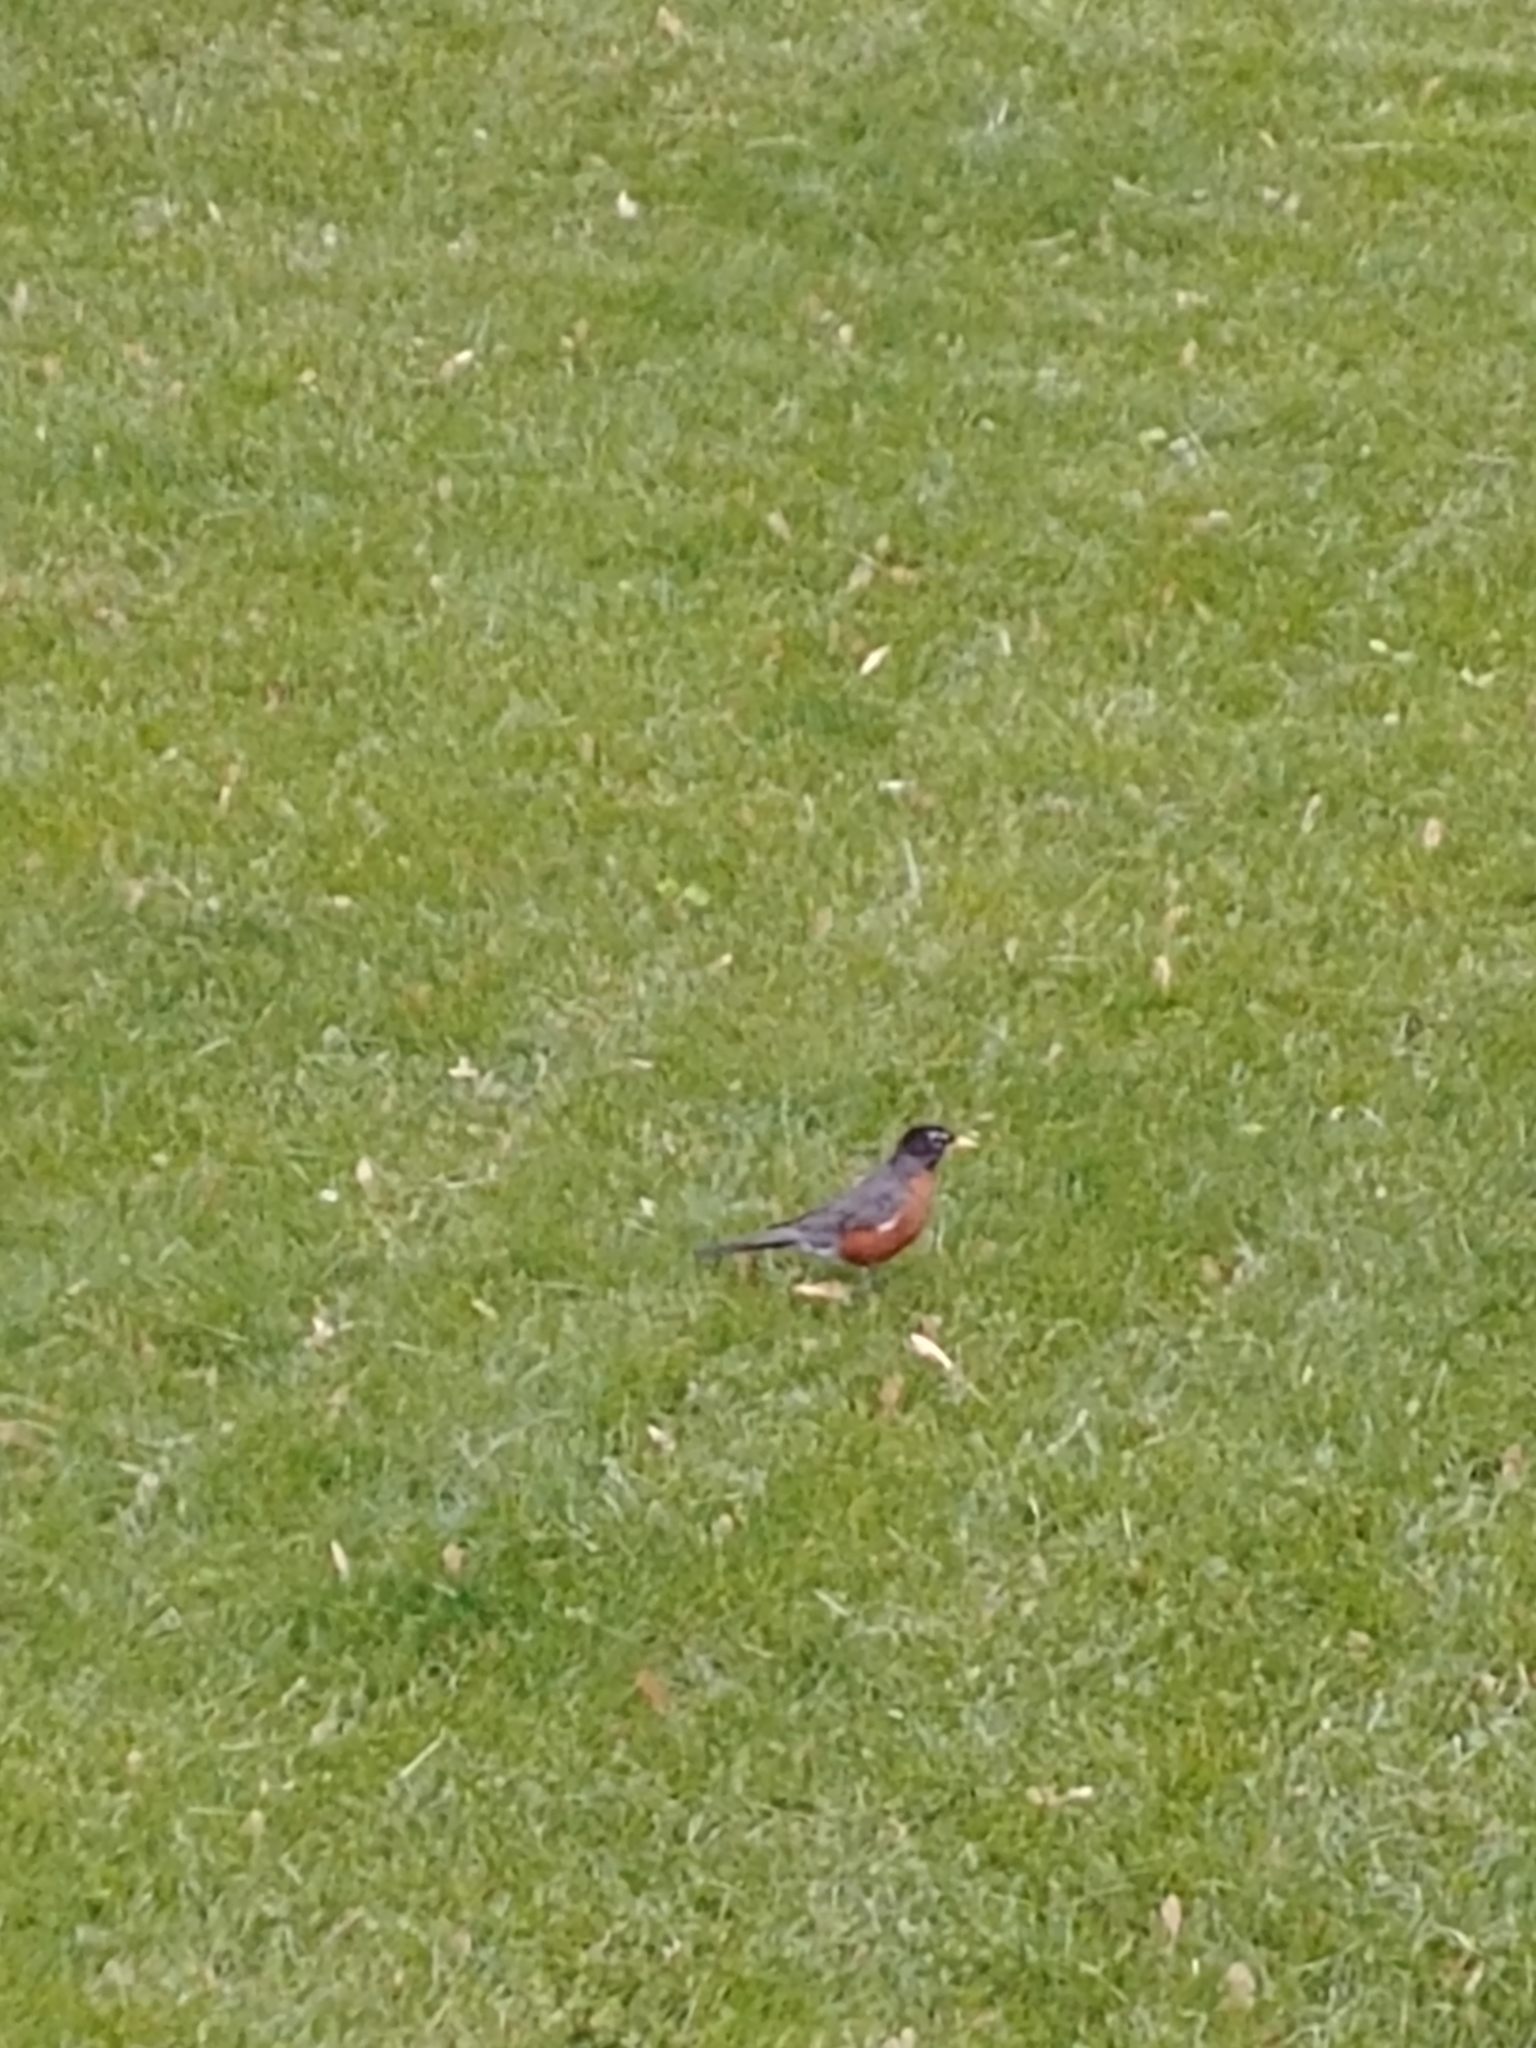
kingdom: Animalia
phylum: Chordata
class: Aves
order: Passeriformes
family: Turdidae
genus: Turdus
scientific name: Turdus migratorius
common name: American robin
